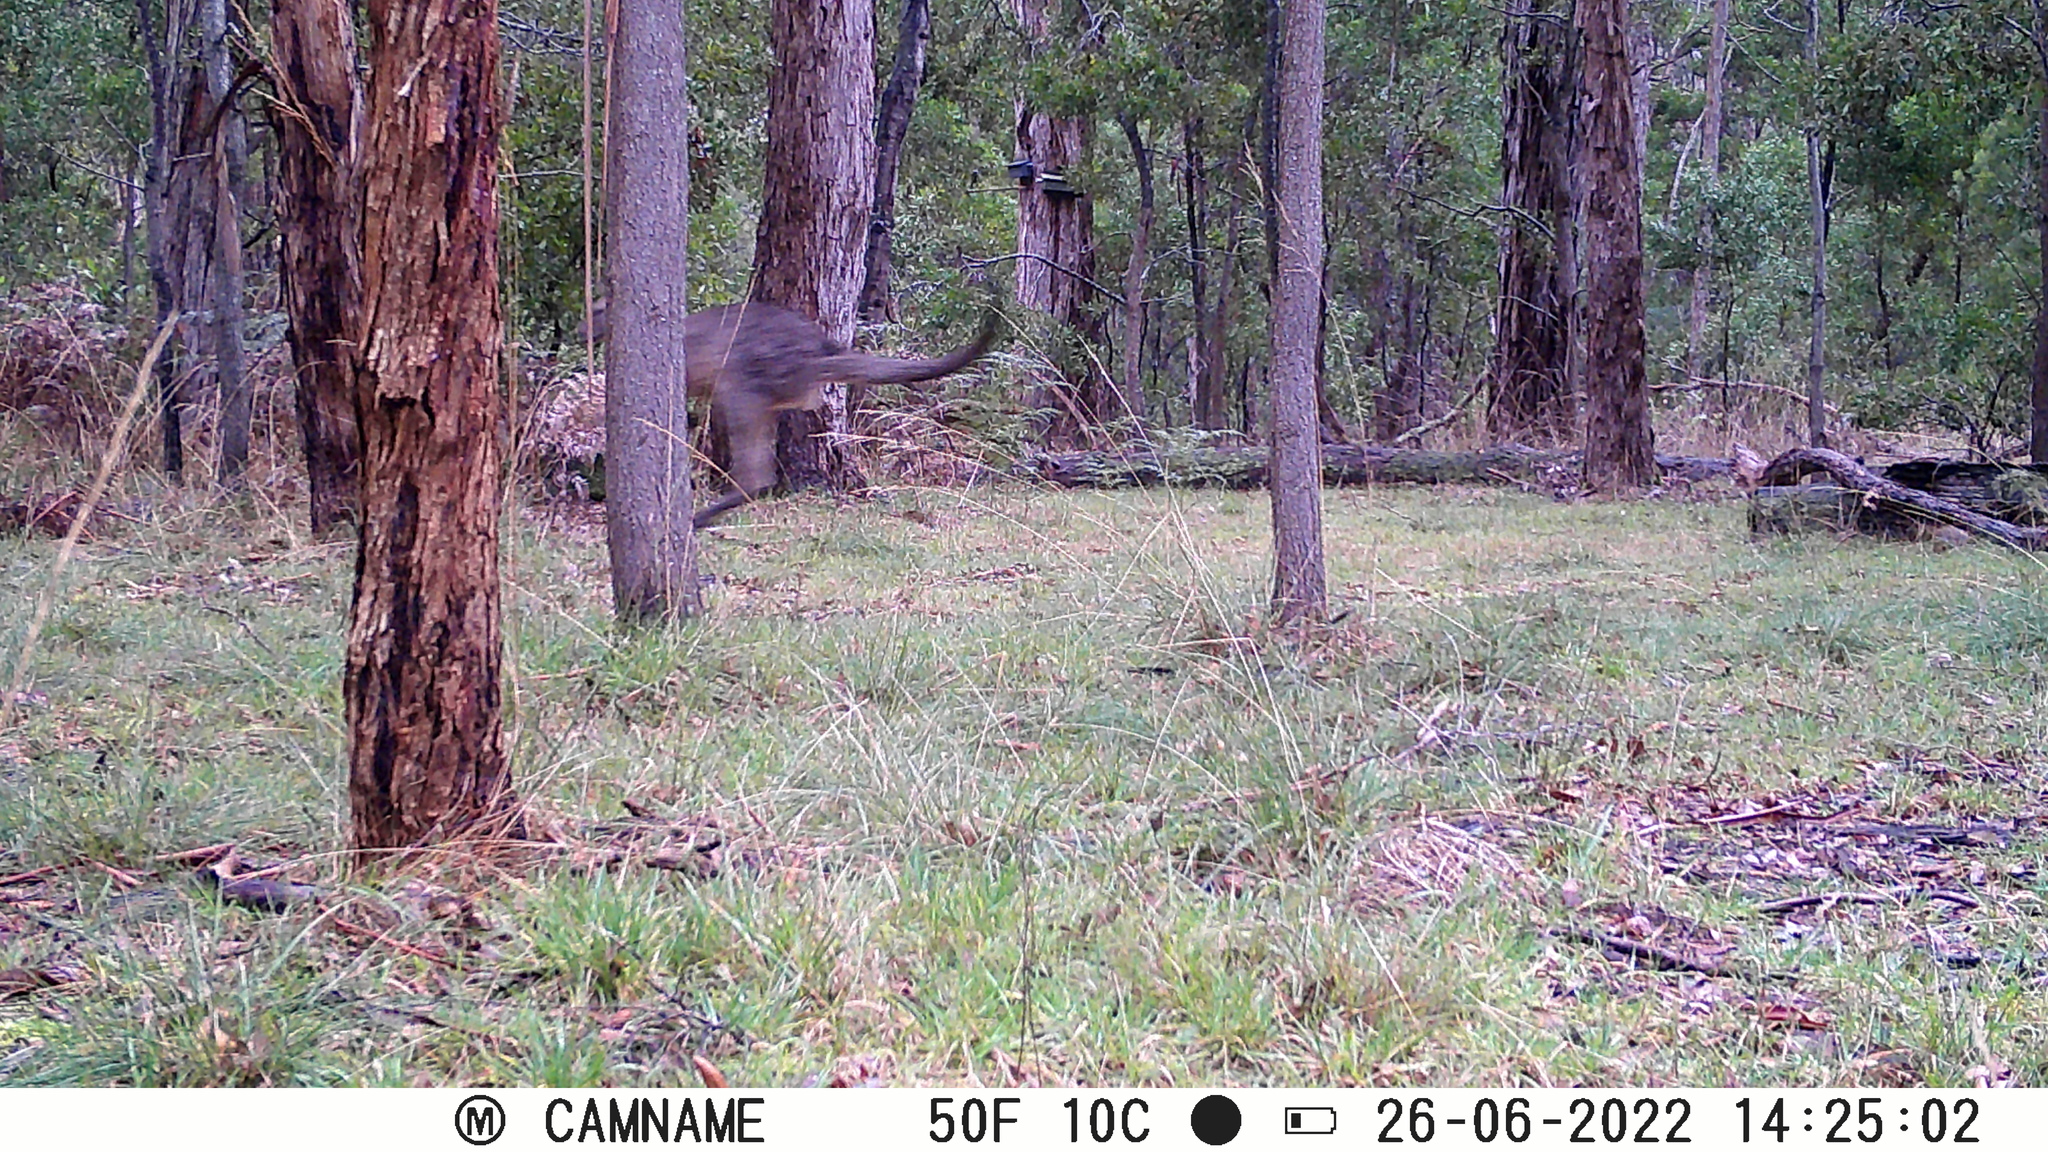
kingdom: Animalia
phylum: Chordata
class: Mammalia
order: Diprotodontia
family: Macropodidae
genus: Macropus
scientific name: Macropus giganteus
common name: Eastern grey kangaroo
